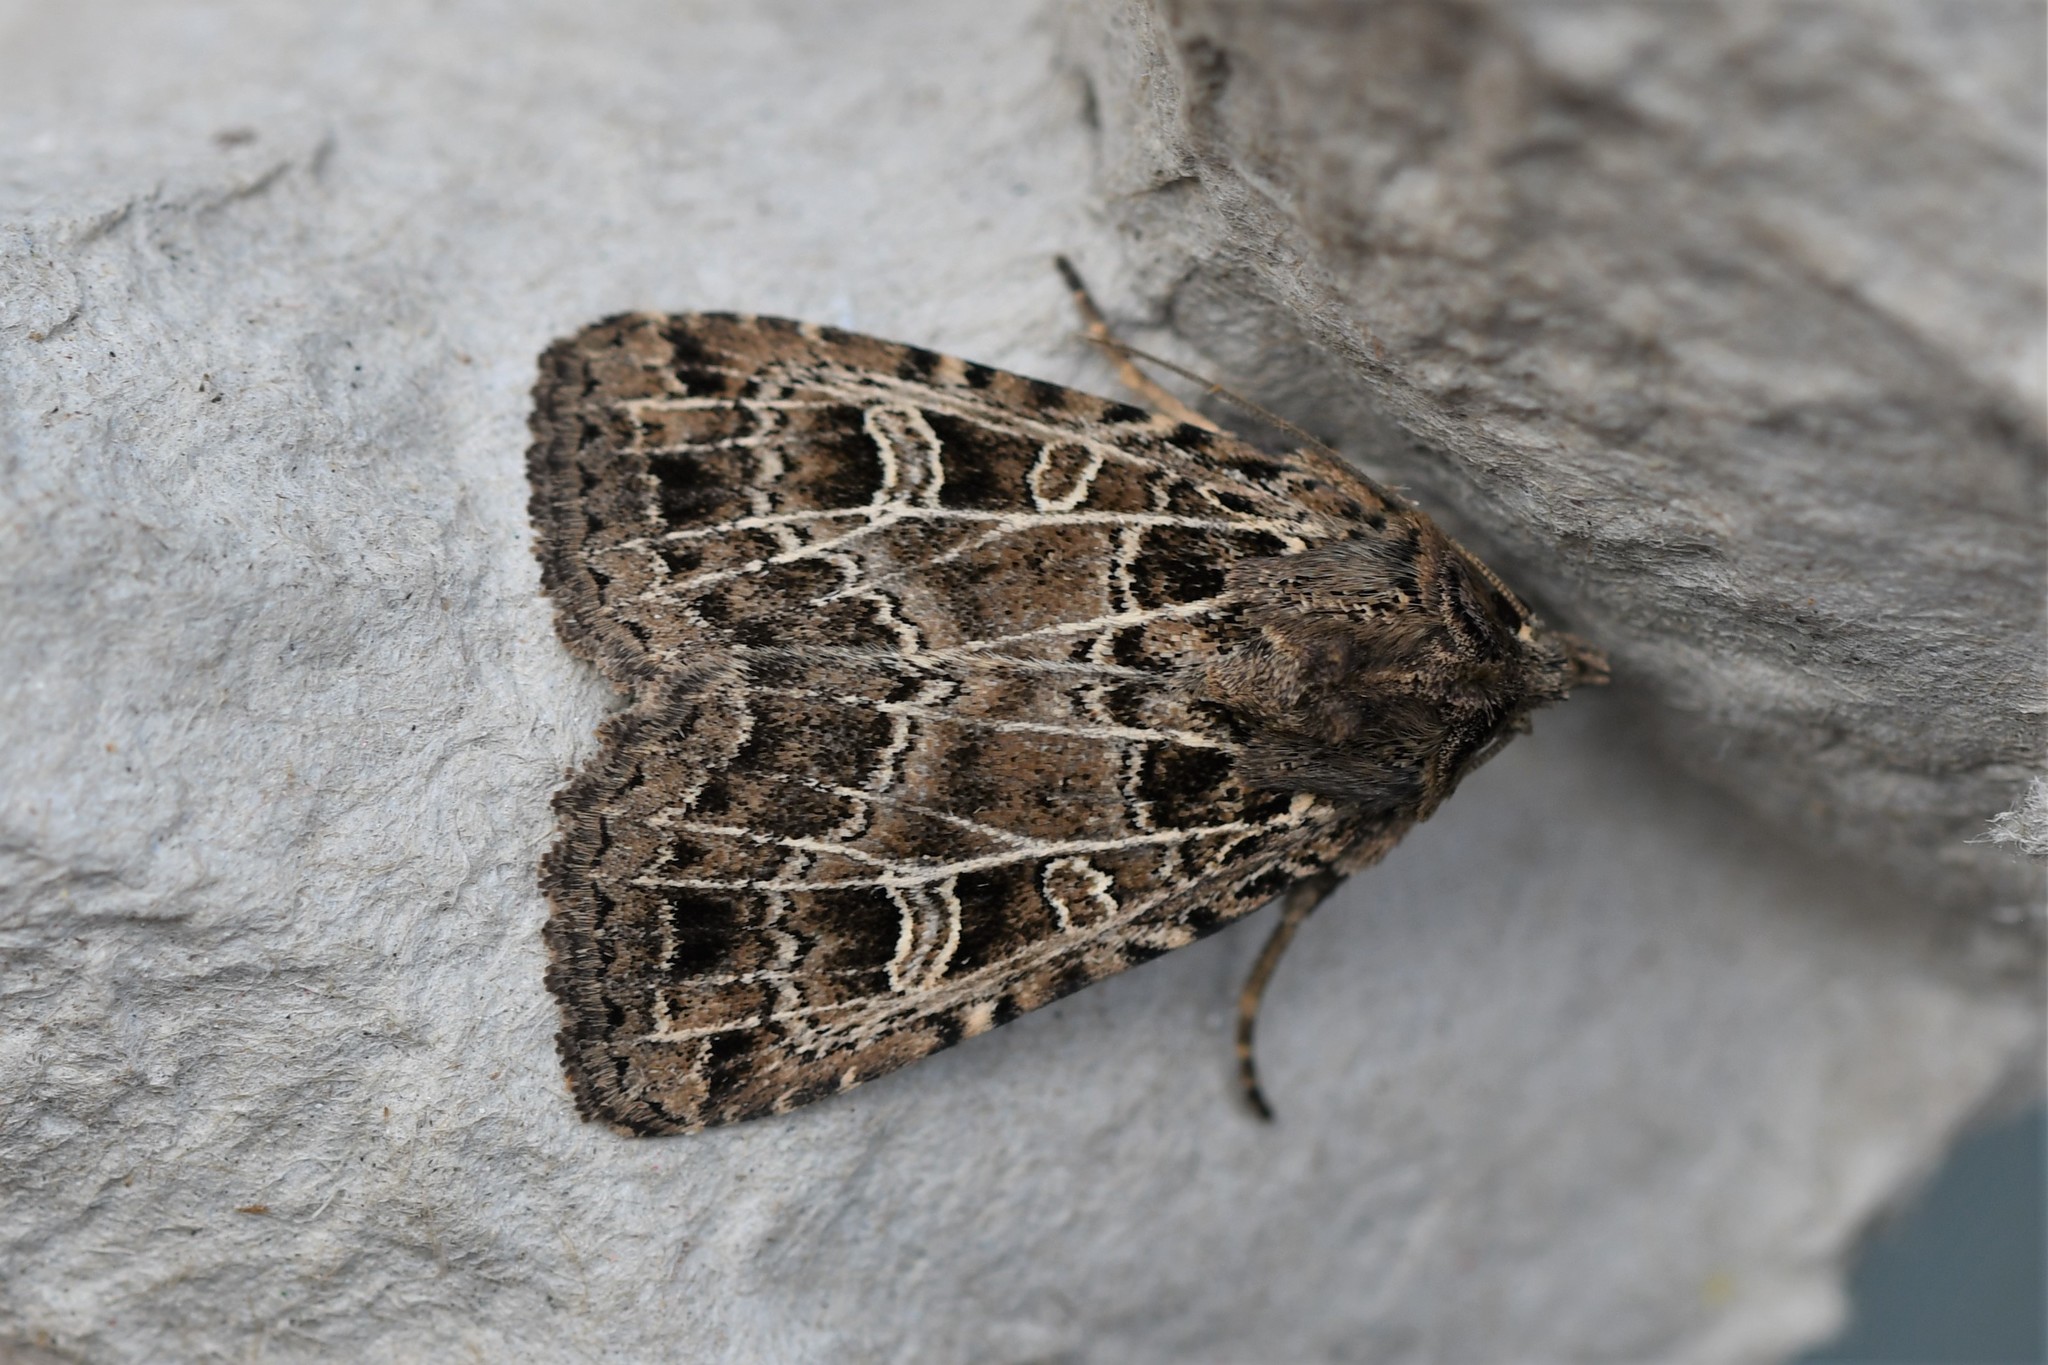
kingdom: Animalia
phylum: Arthropoda
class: Insecta
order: Lepidoptera
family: Noctuidae
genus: Naenia
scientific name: Naenia typica
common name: Gothic
